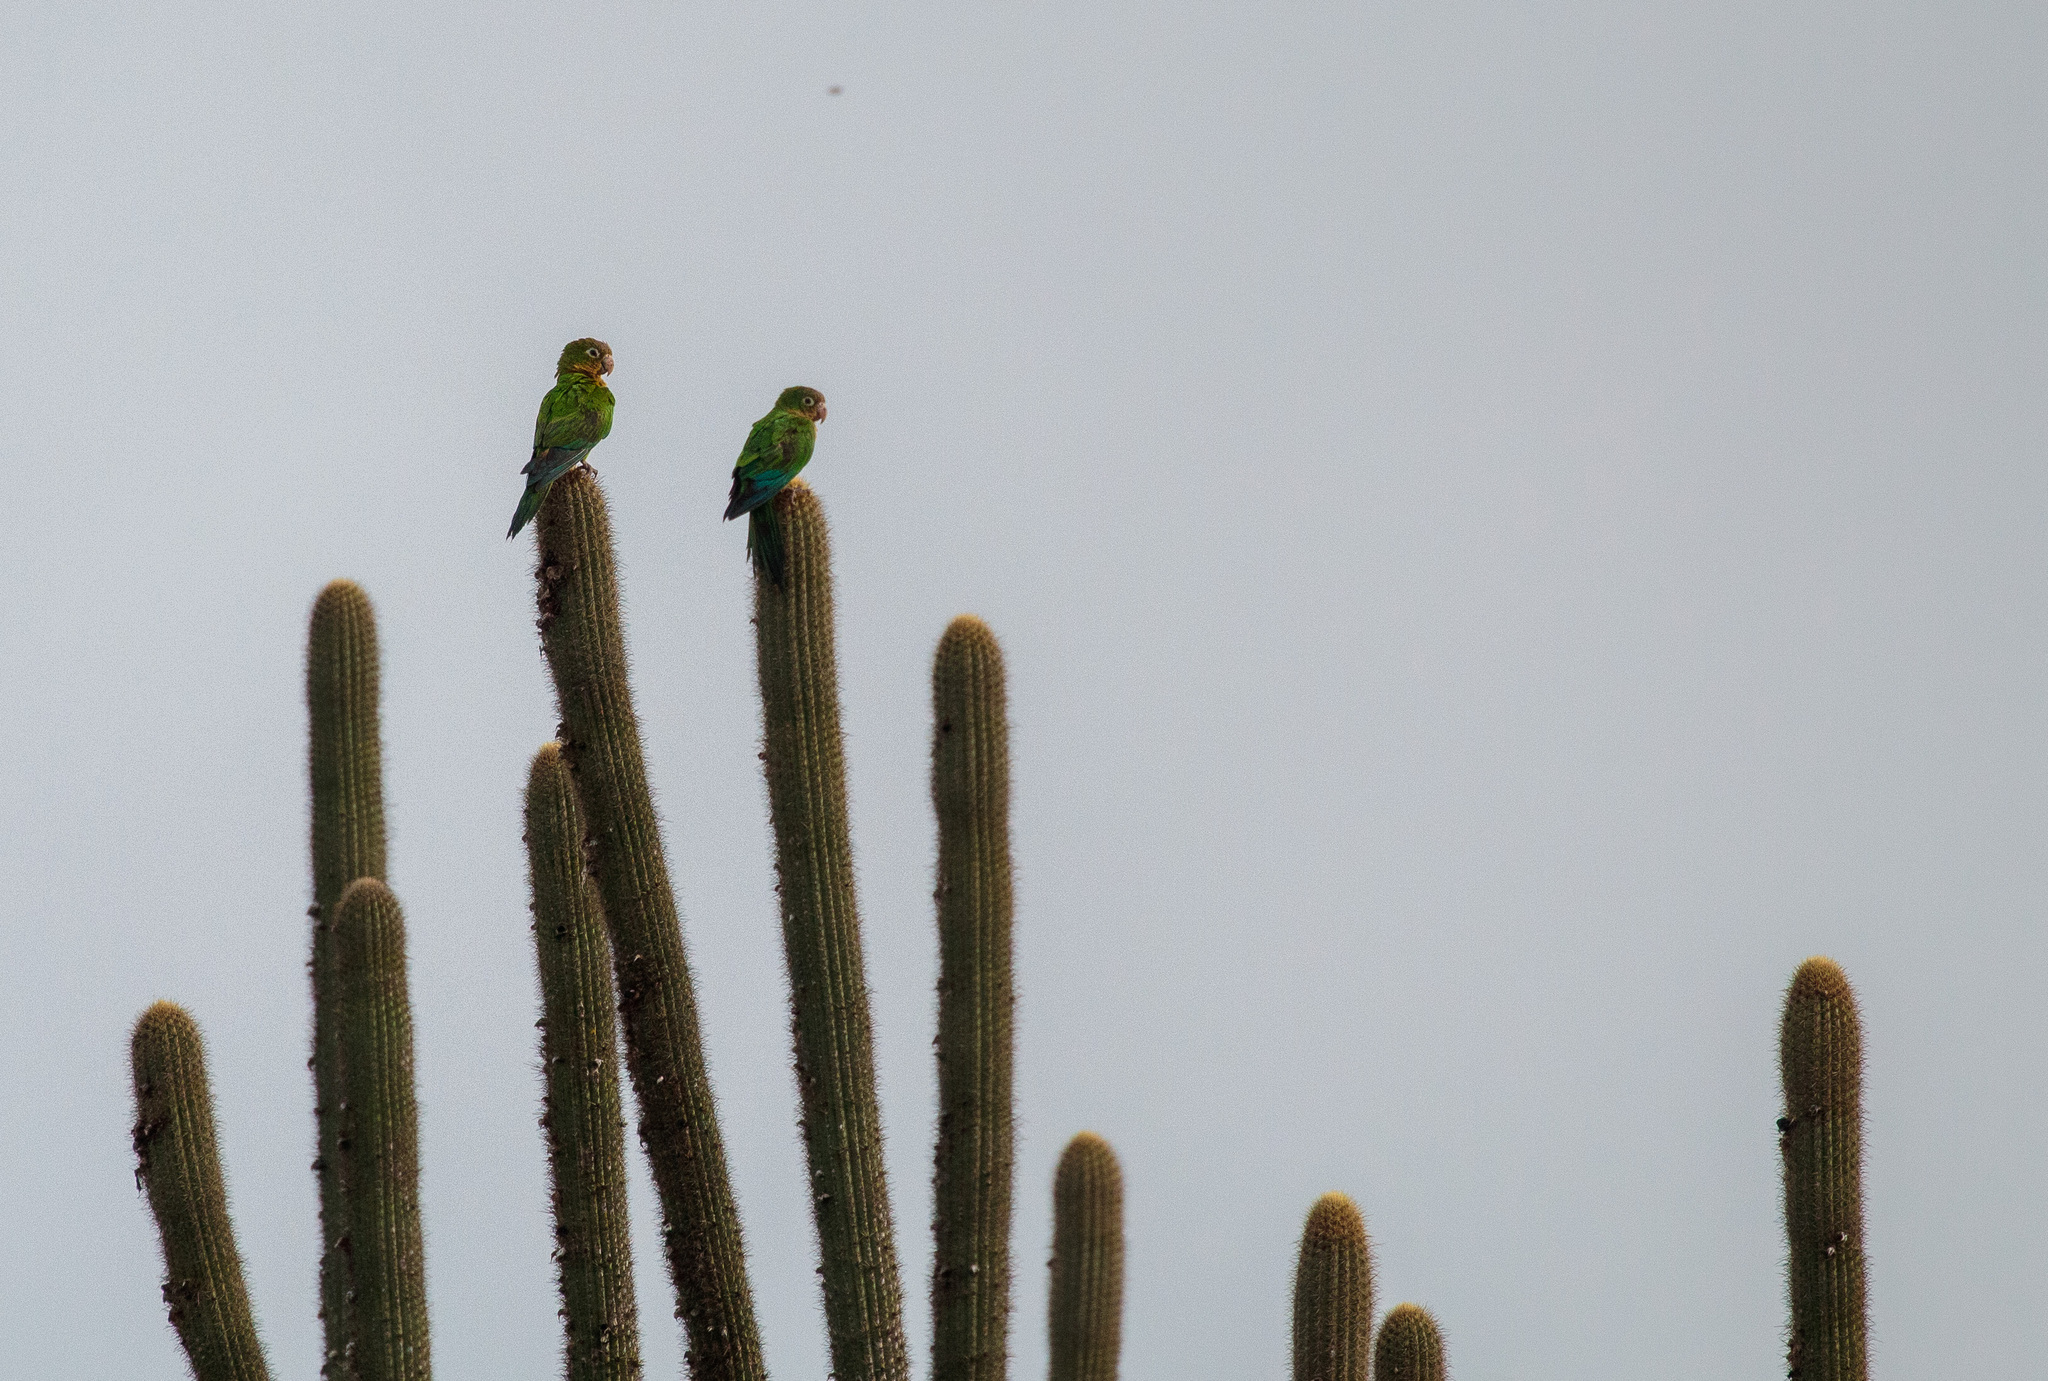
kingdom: Animalia
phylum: Chordata
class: Aves
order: Psittaciformes
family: Psittacidae
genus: Aratinga
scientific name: Aratinga cactorum
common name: Caatinga parakeet
